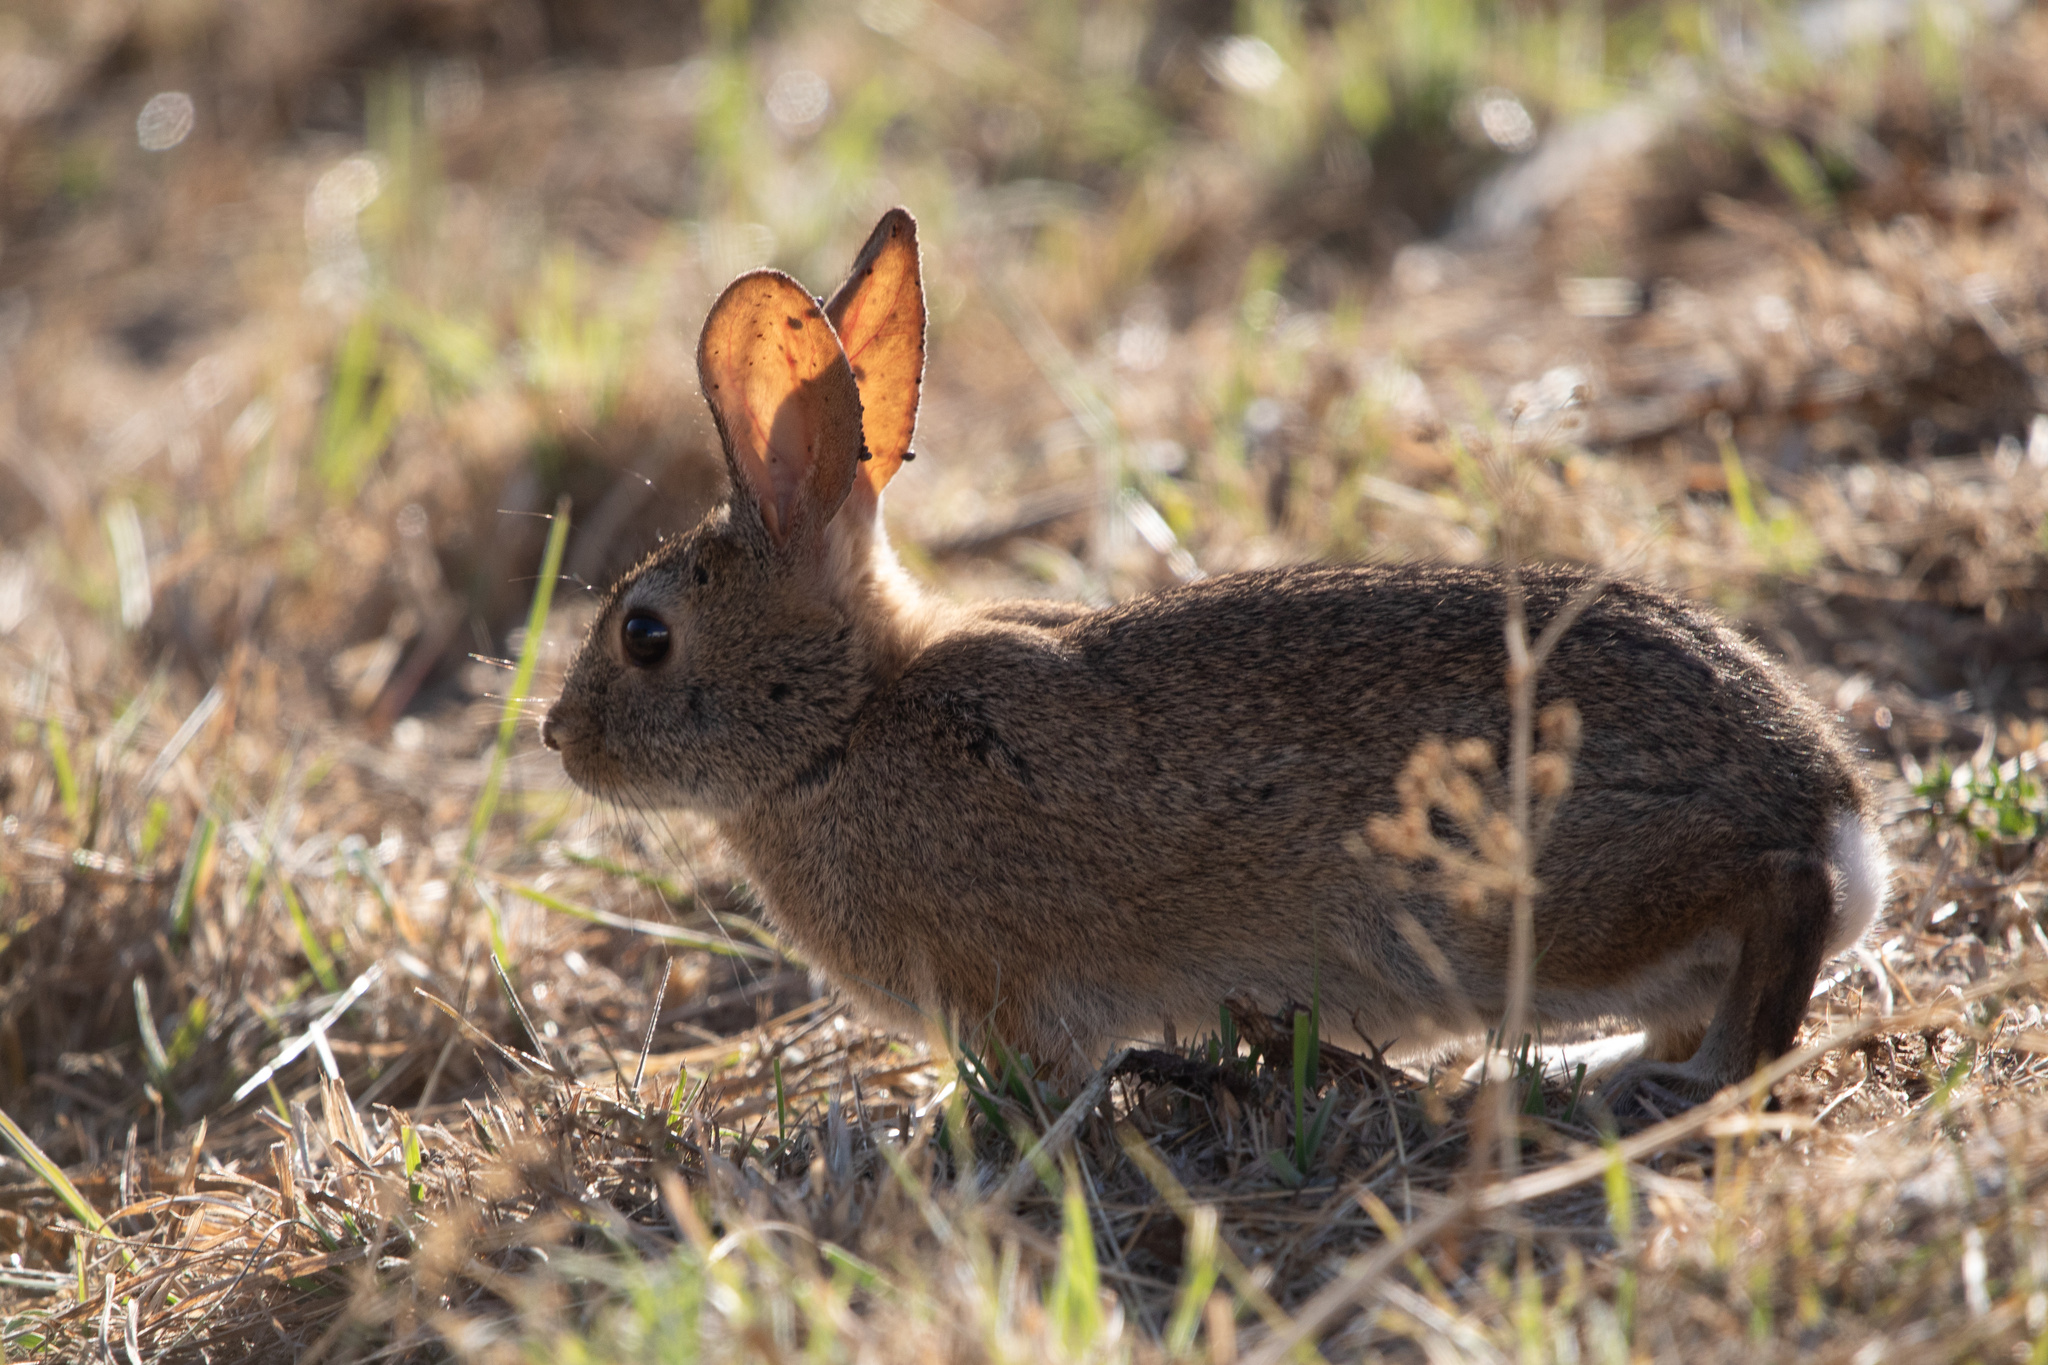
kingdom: Animalia
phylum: Chordata
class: Mammalia
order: Lagomorpha
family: Leporidae
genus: Sylvilagus
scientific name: Sylvilagus bachmani
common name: Brush rabbit
